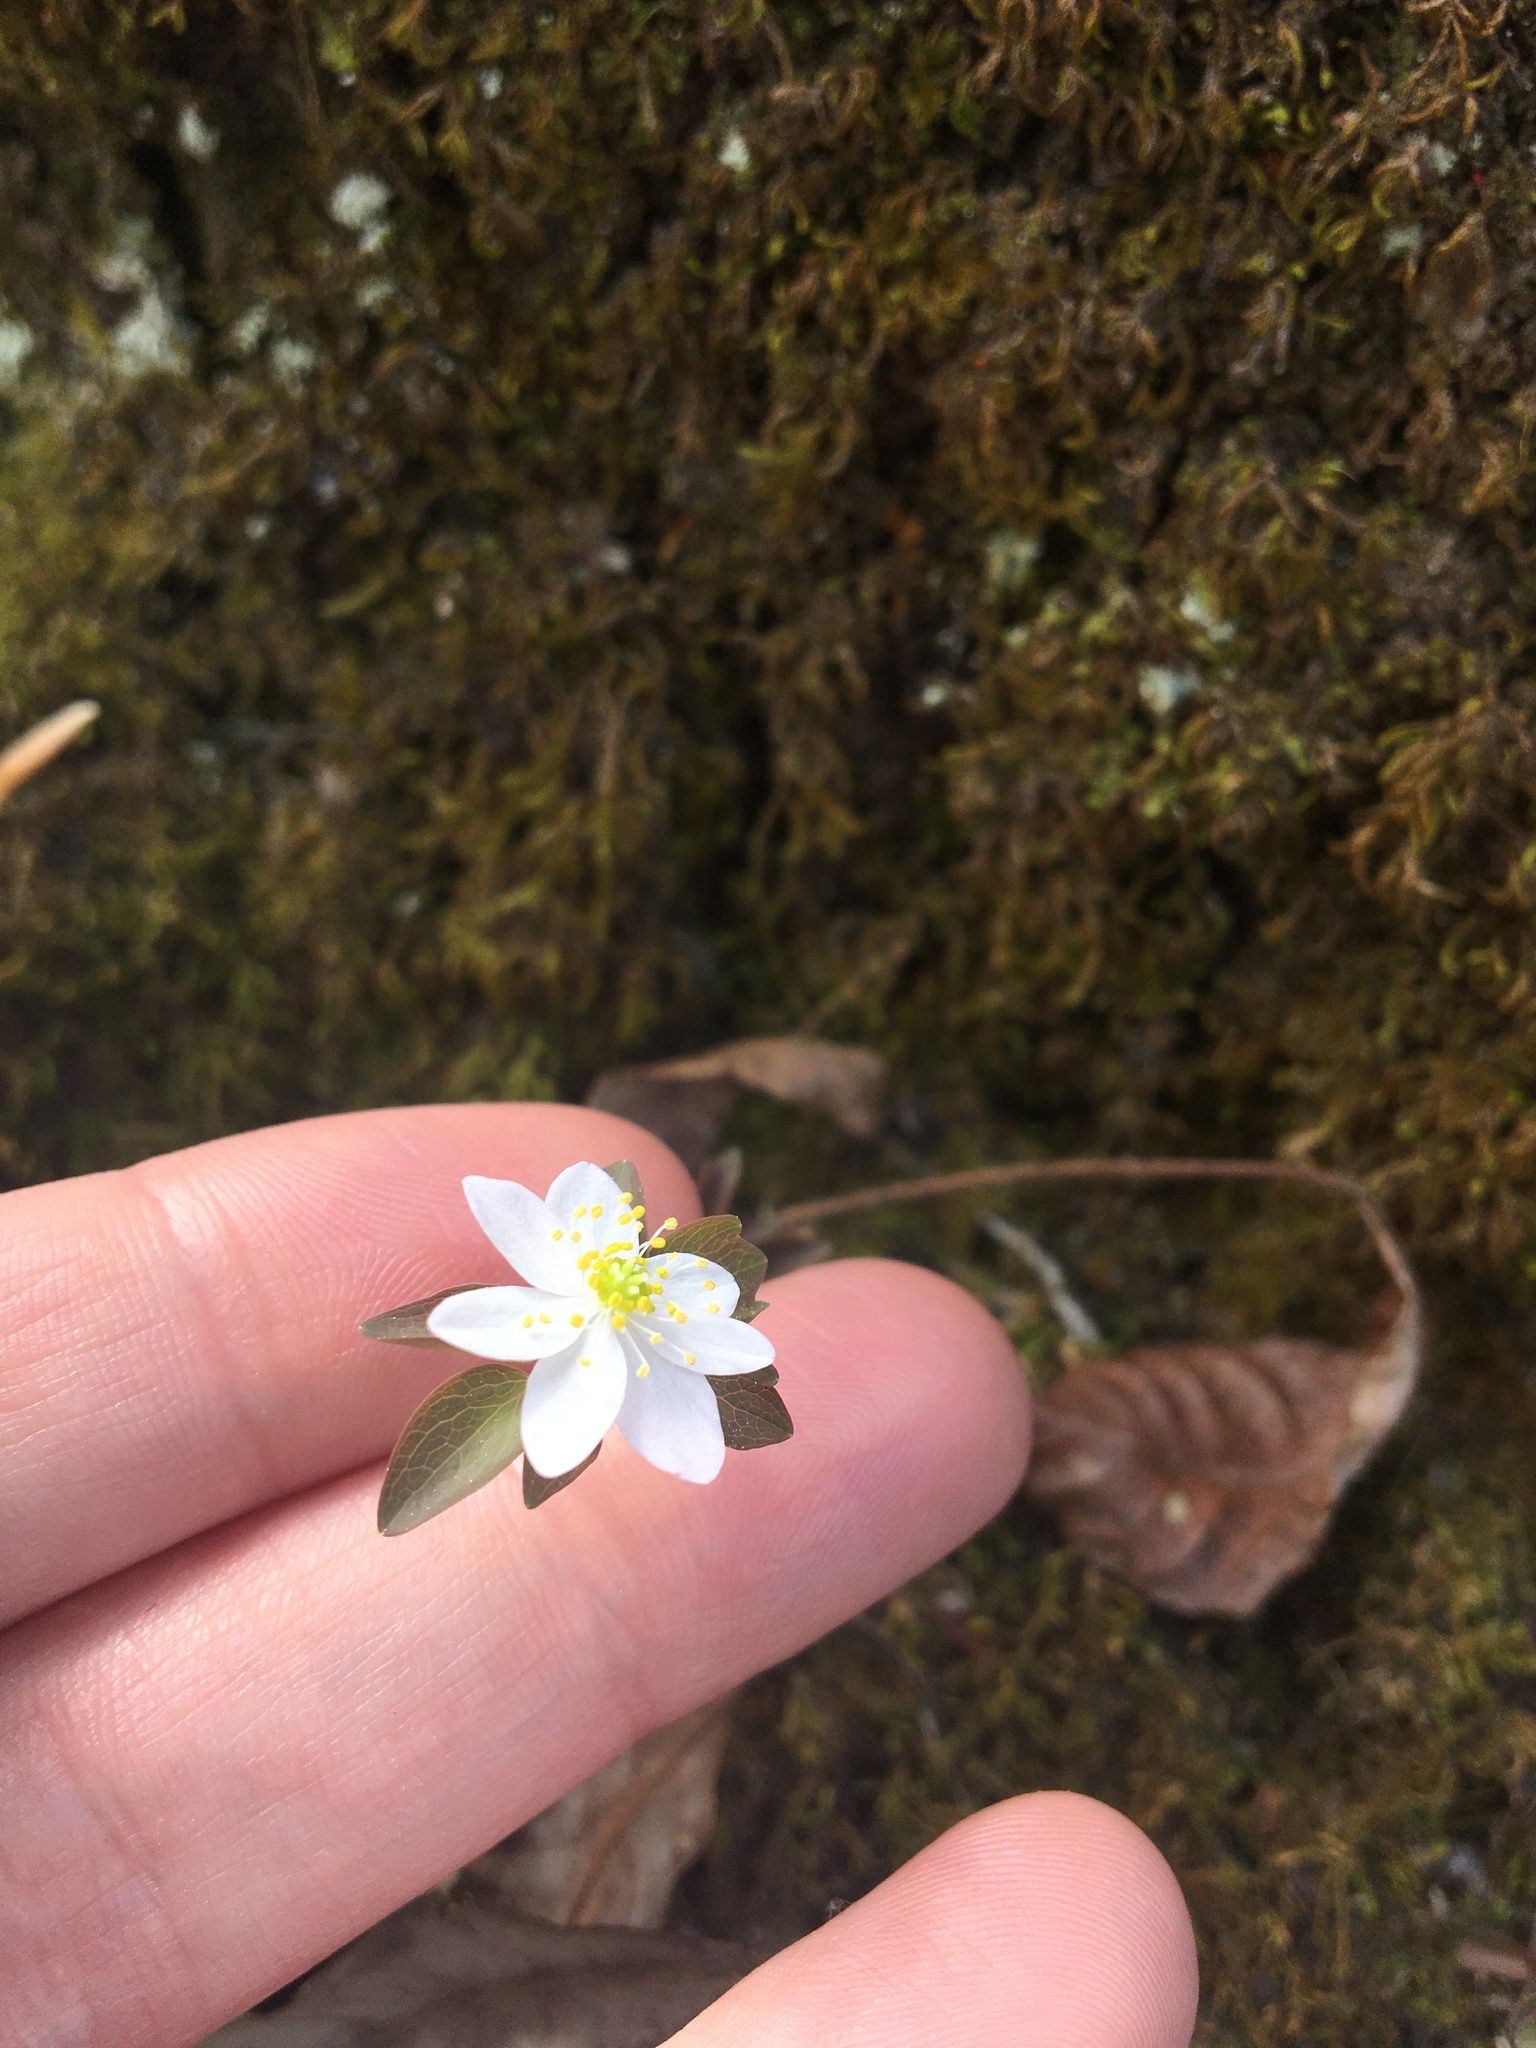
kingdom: Plantae
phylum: Tracheophyta
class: Magnoliopsida
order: Ranunculales
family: Ranunculaceae
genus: Thalictrum
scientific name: Thalictrum thalictroides
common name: Rue-anemone
